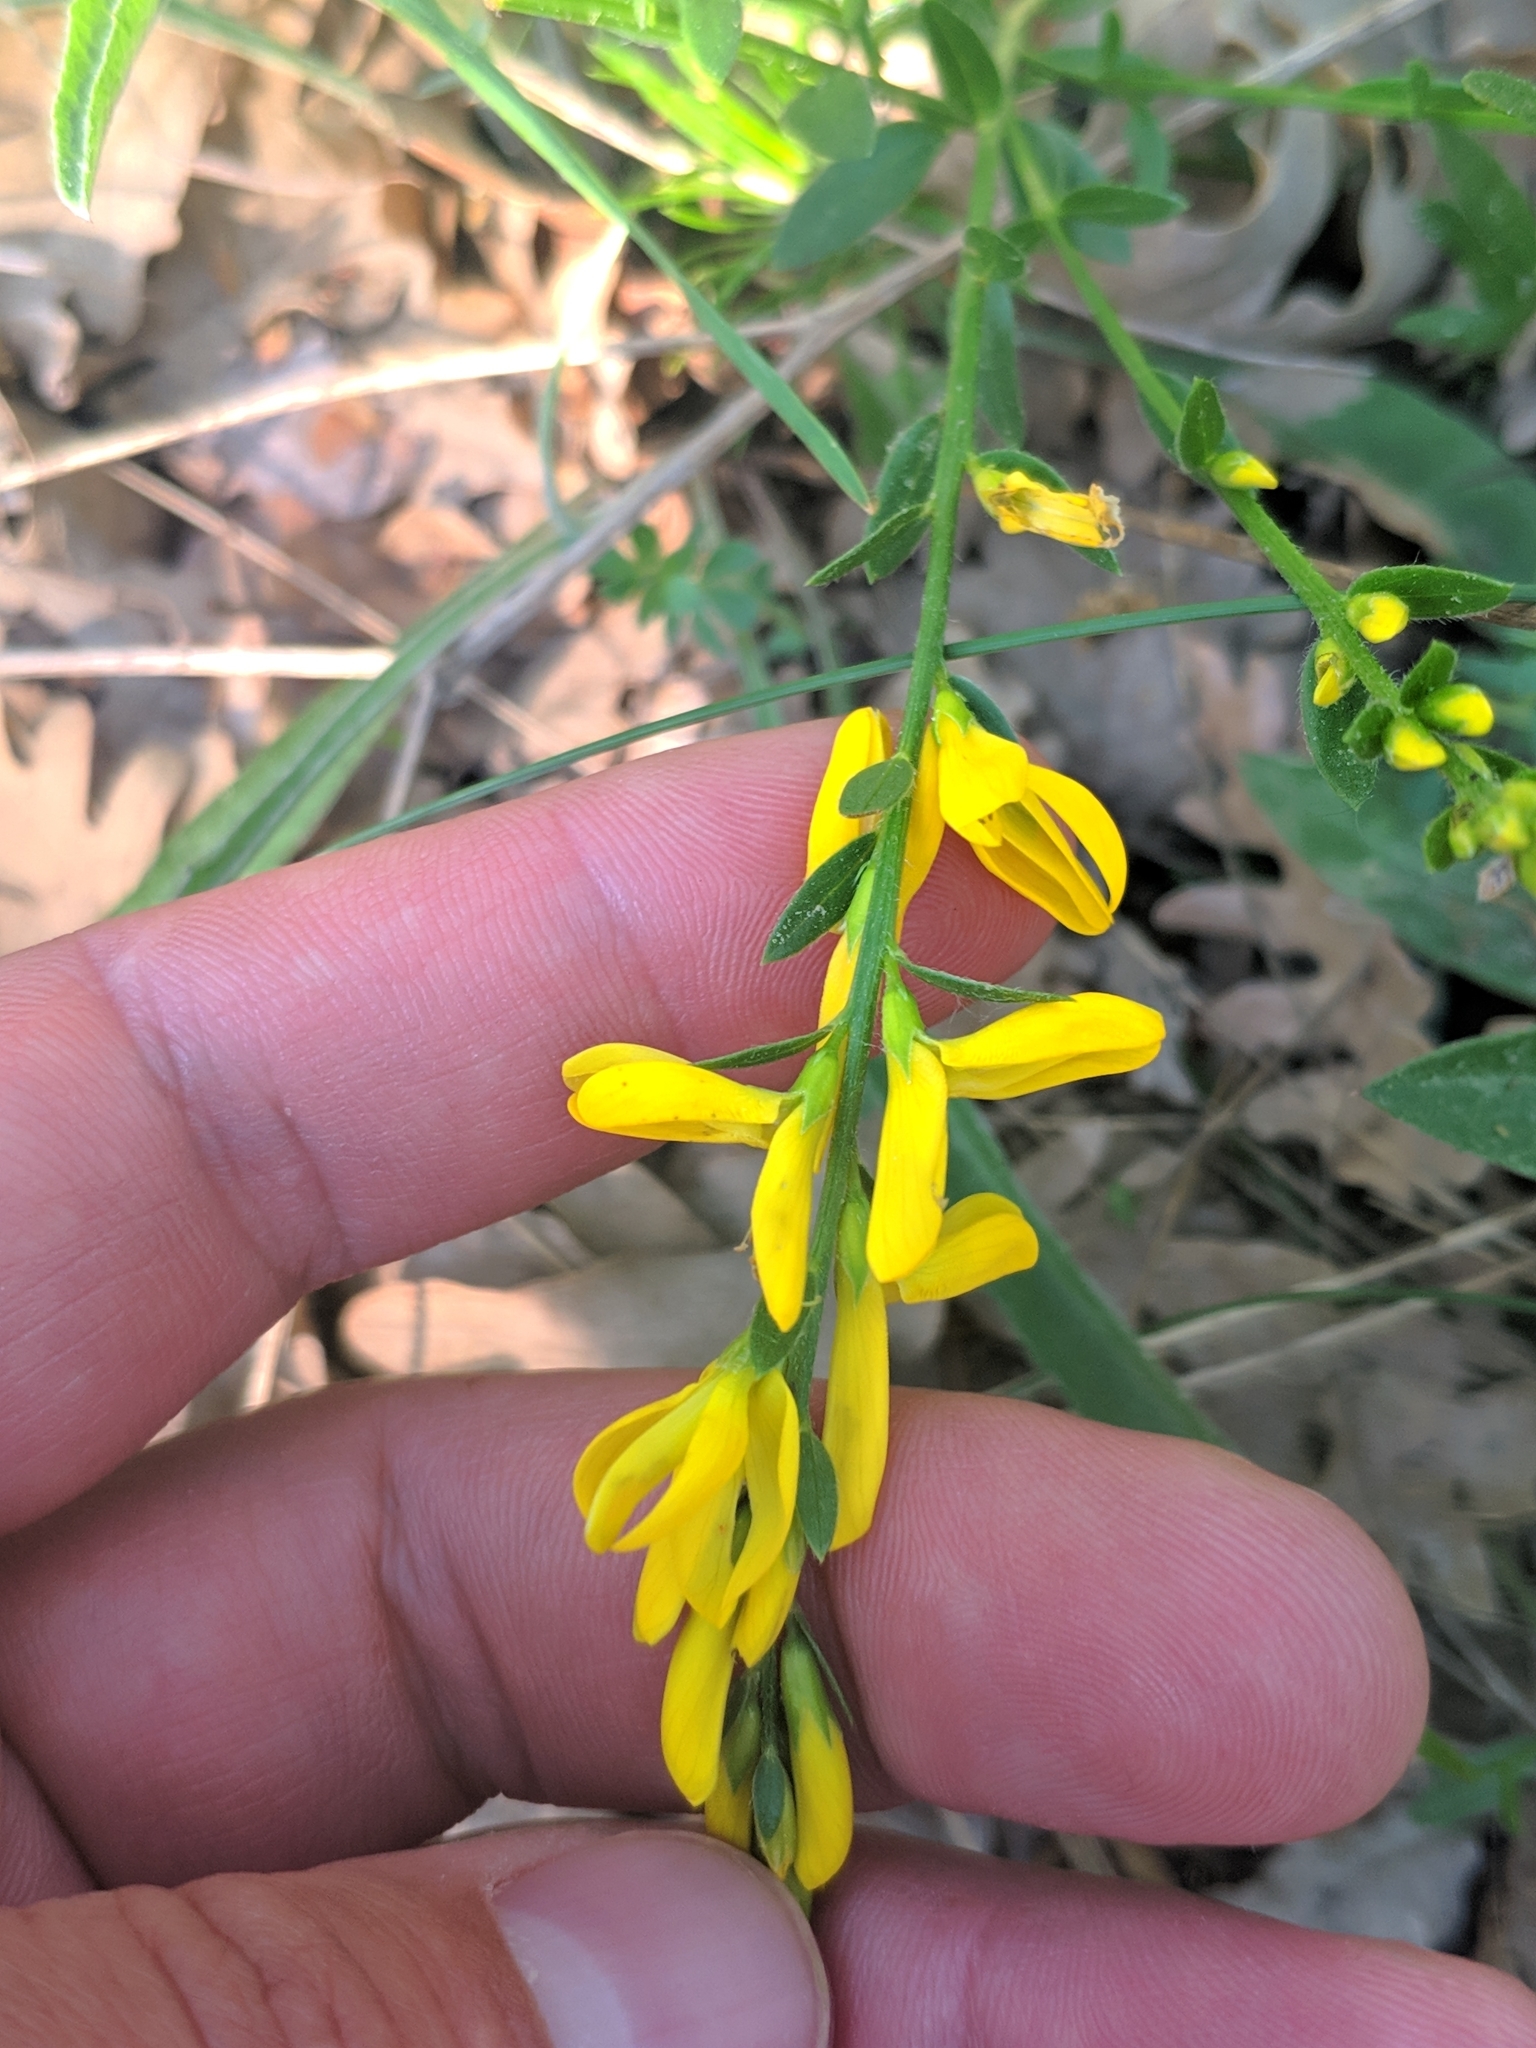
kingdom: Plantae
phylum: Tracheophyta
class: Magnoliopsida
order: Fabales
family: Fabaceae
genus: Genista
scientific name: Genista tinctoria
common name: Dyer's greenweed
